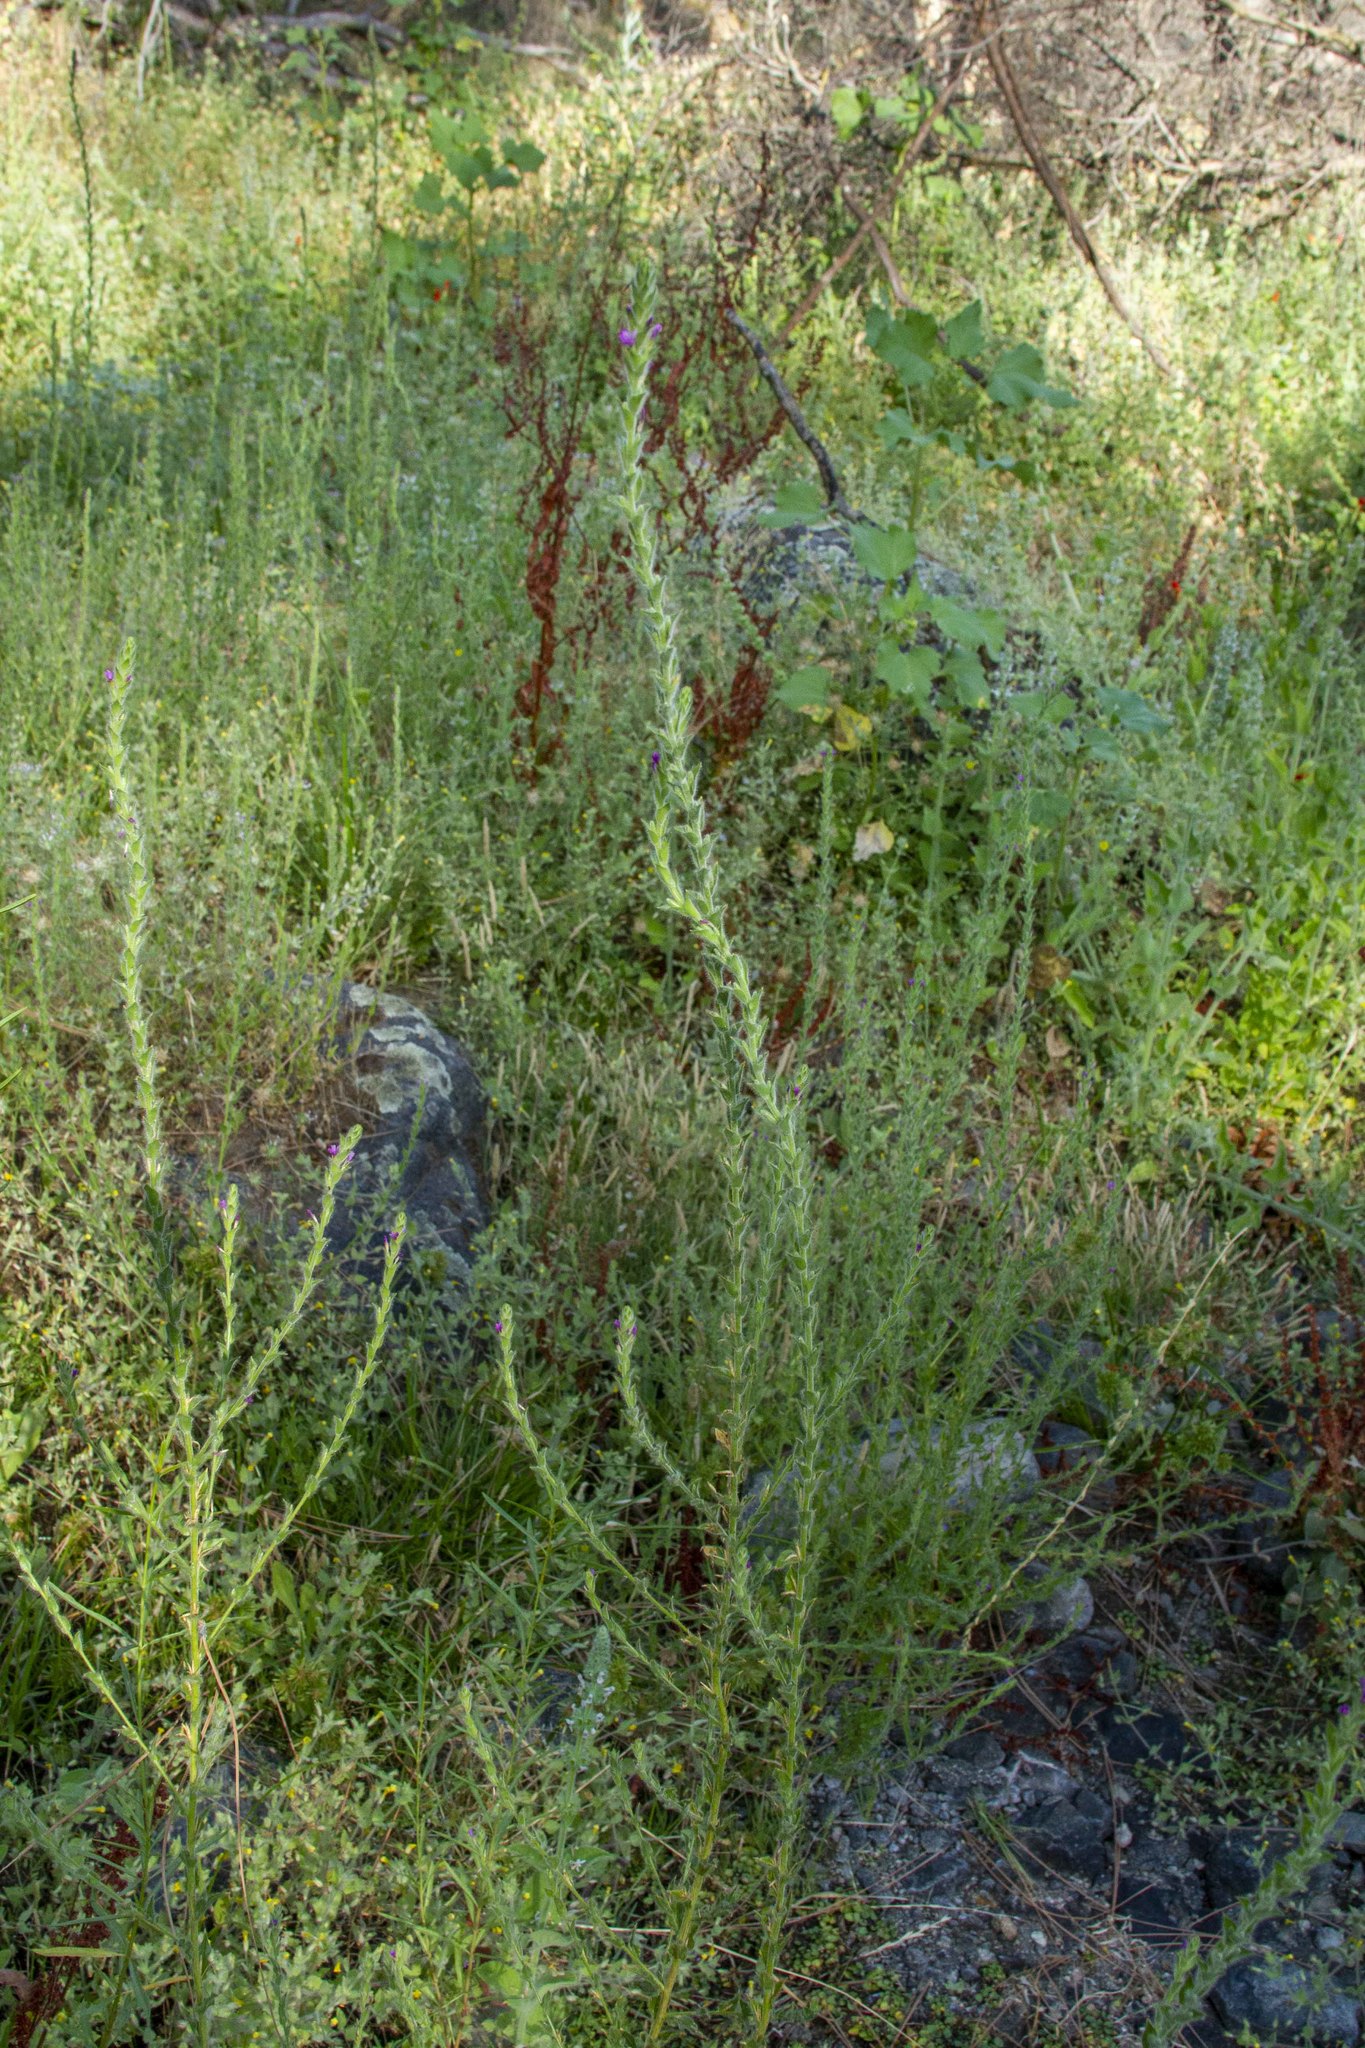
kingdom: Plantae
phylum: Tracheophyta
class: Magnoliopsida
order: Myrtales
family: Onagraceae
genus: Epilobium
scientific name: Epilobium densiflorum
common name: Dense spike-primrose
